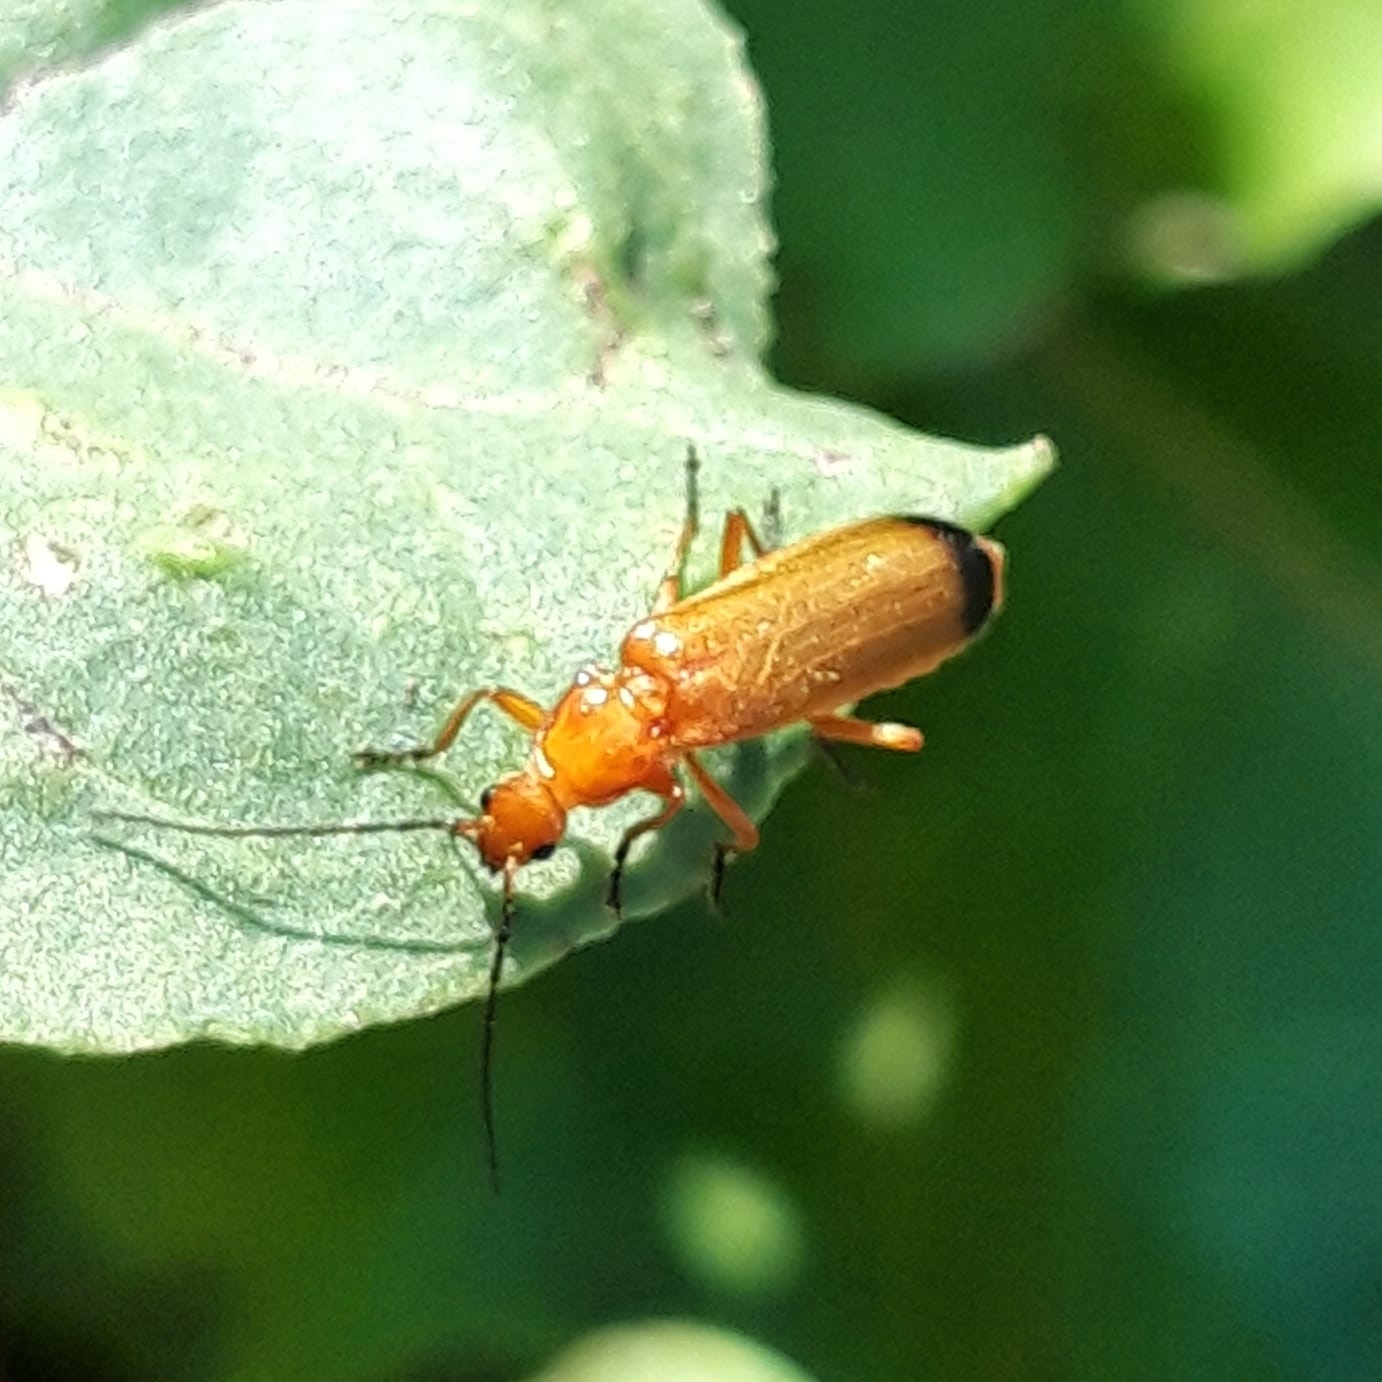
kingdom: Animalia
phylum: Arthropoda
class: Insecta
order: Coleoptera
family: Cantharidae
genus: Rhagonycha
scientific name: Rhagonycha fulva
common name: Common red soldier beetle
